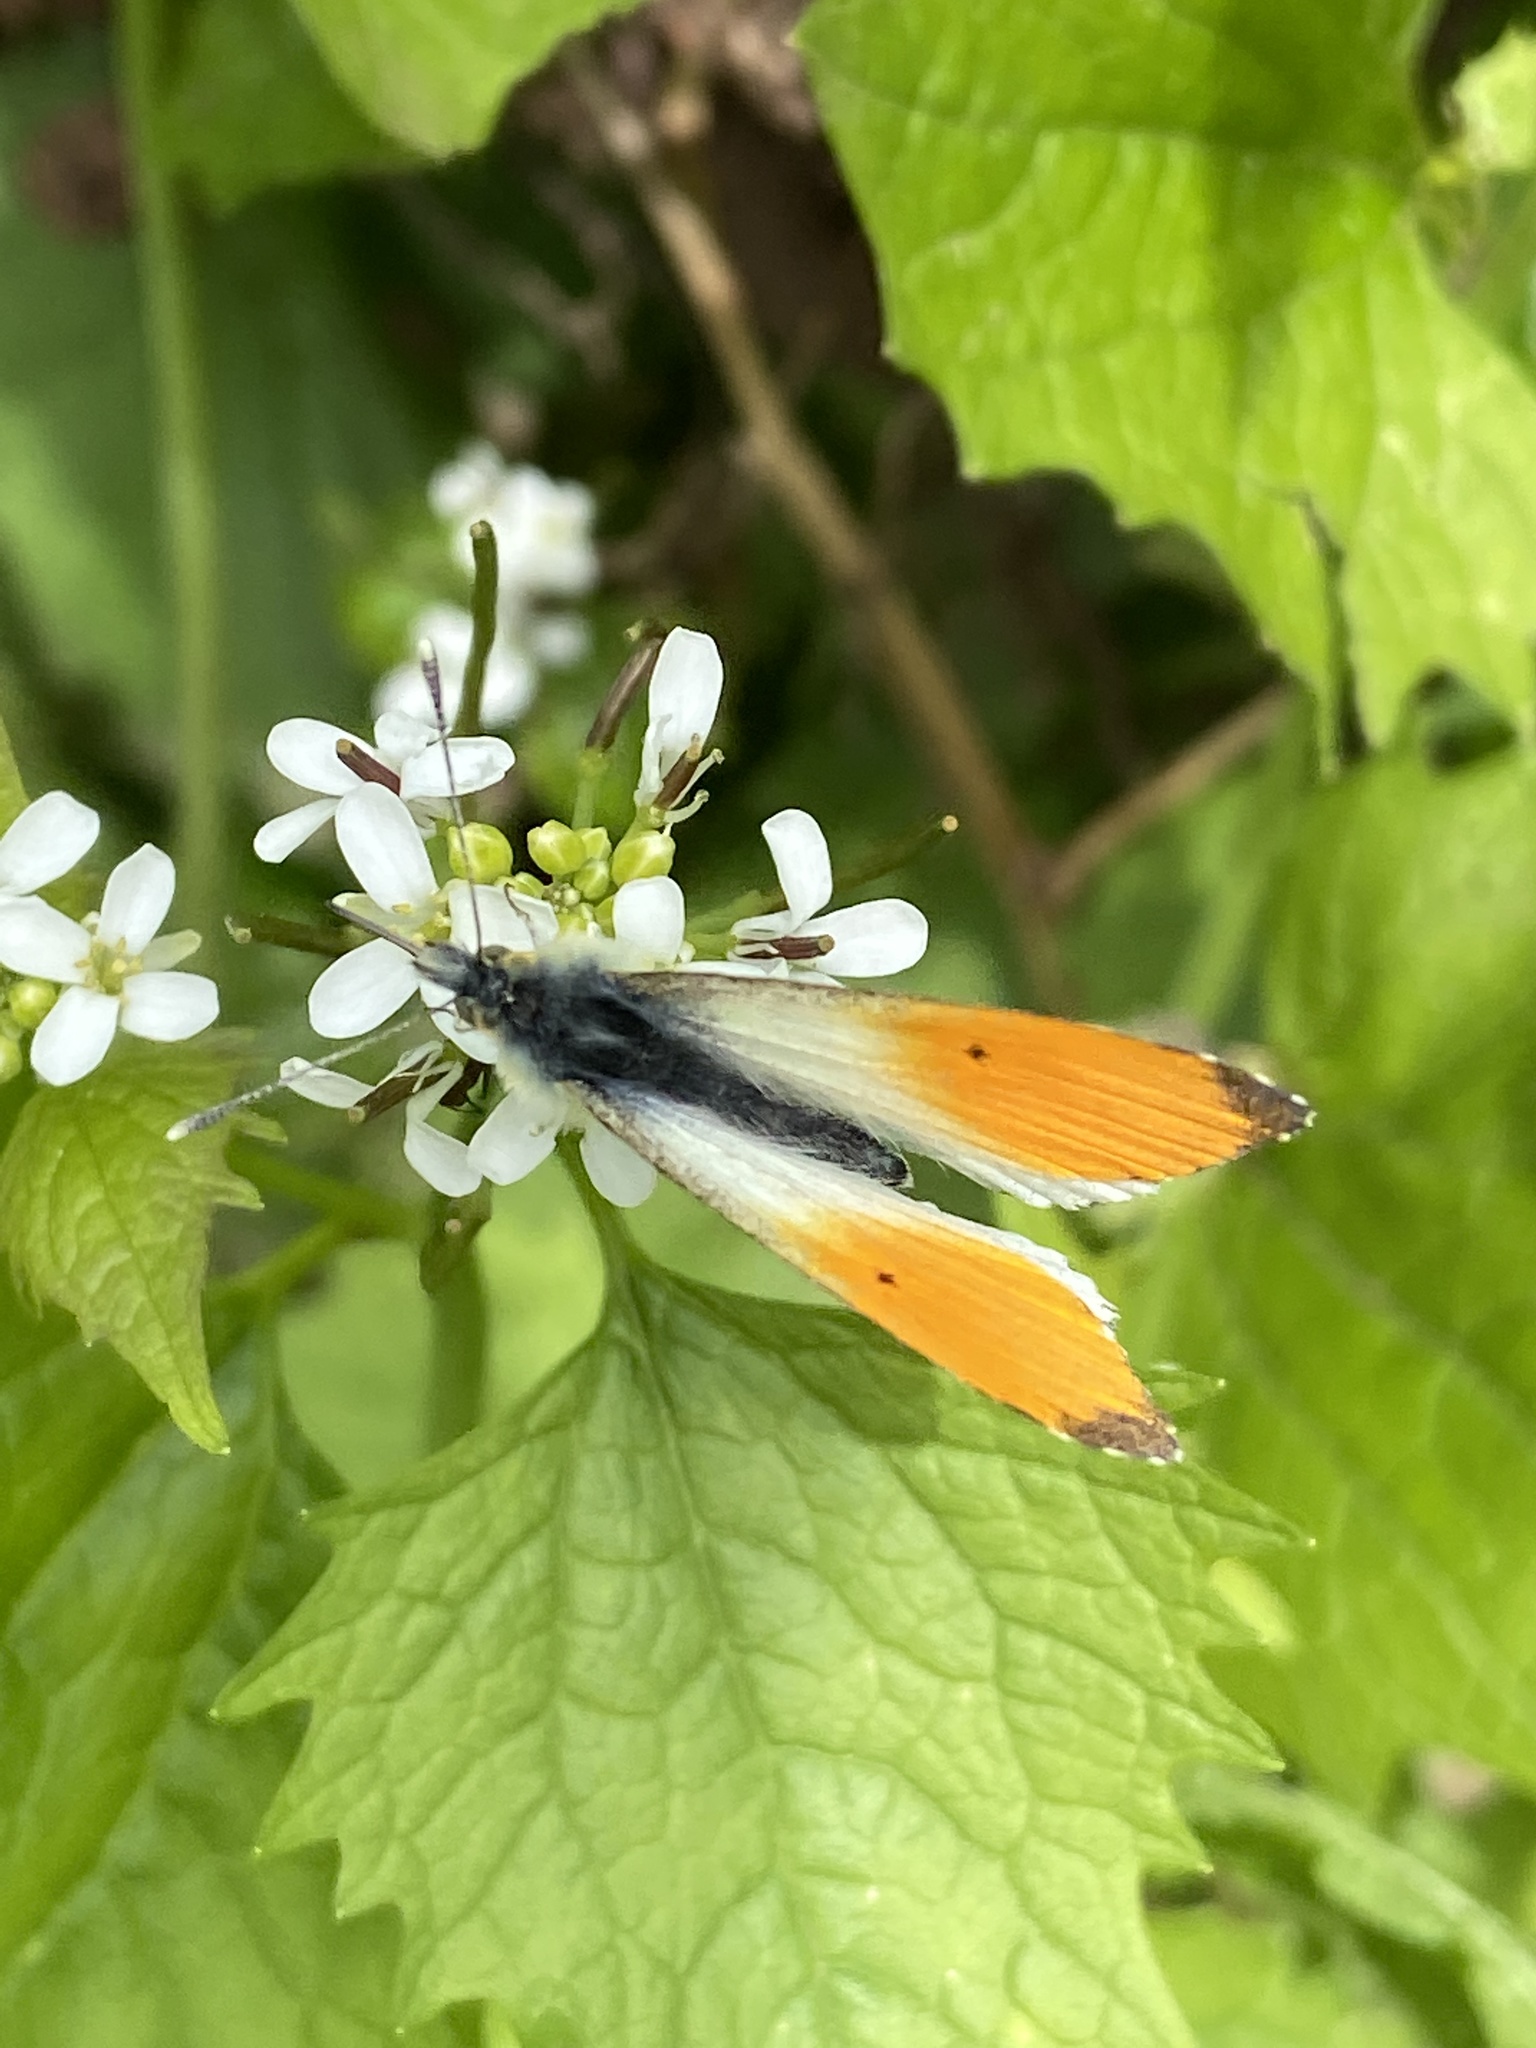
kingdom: Animalia
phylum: Arthropoda
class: Insecta
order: Lepidoptera
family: Pieridae
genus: Anthocharis
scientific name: Anthocharis cardamines
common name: Orange-tip
